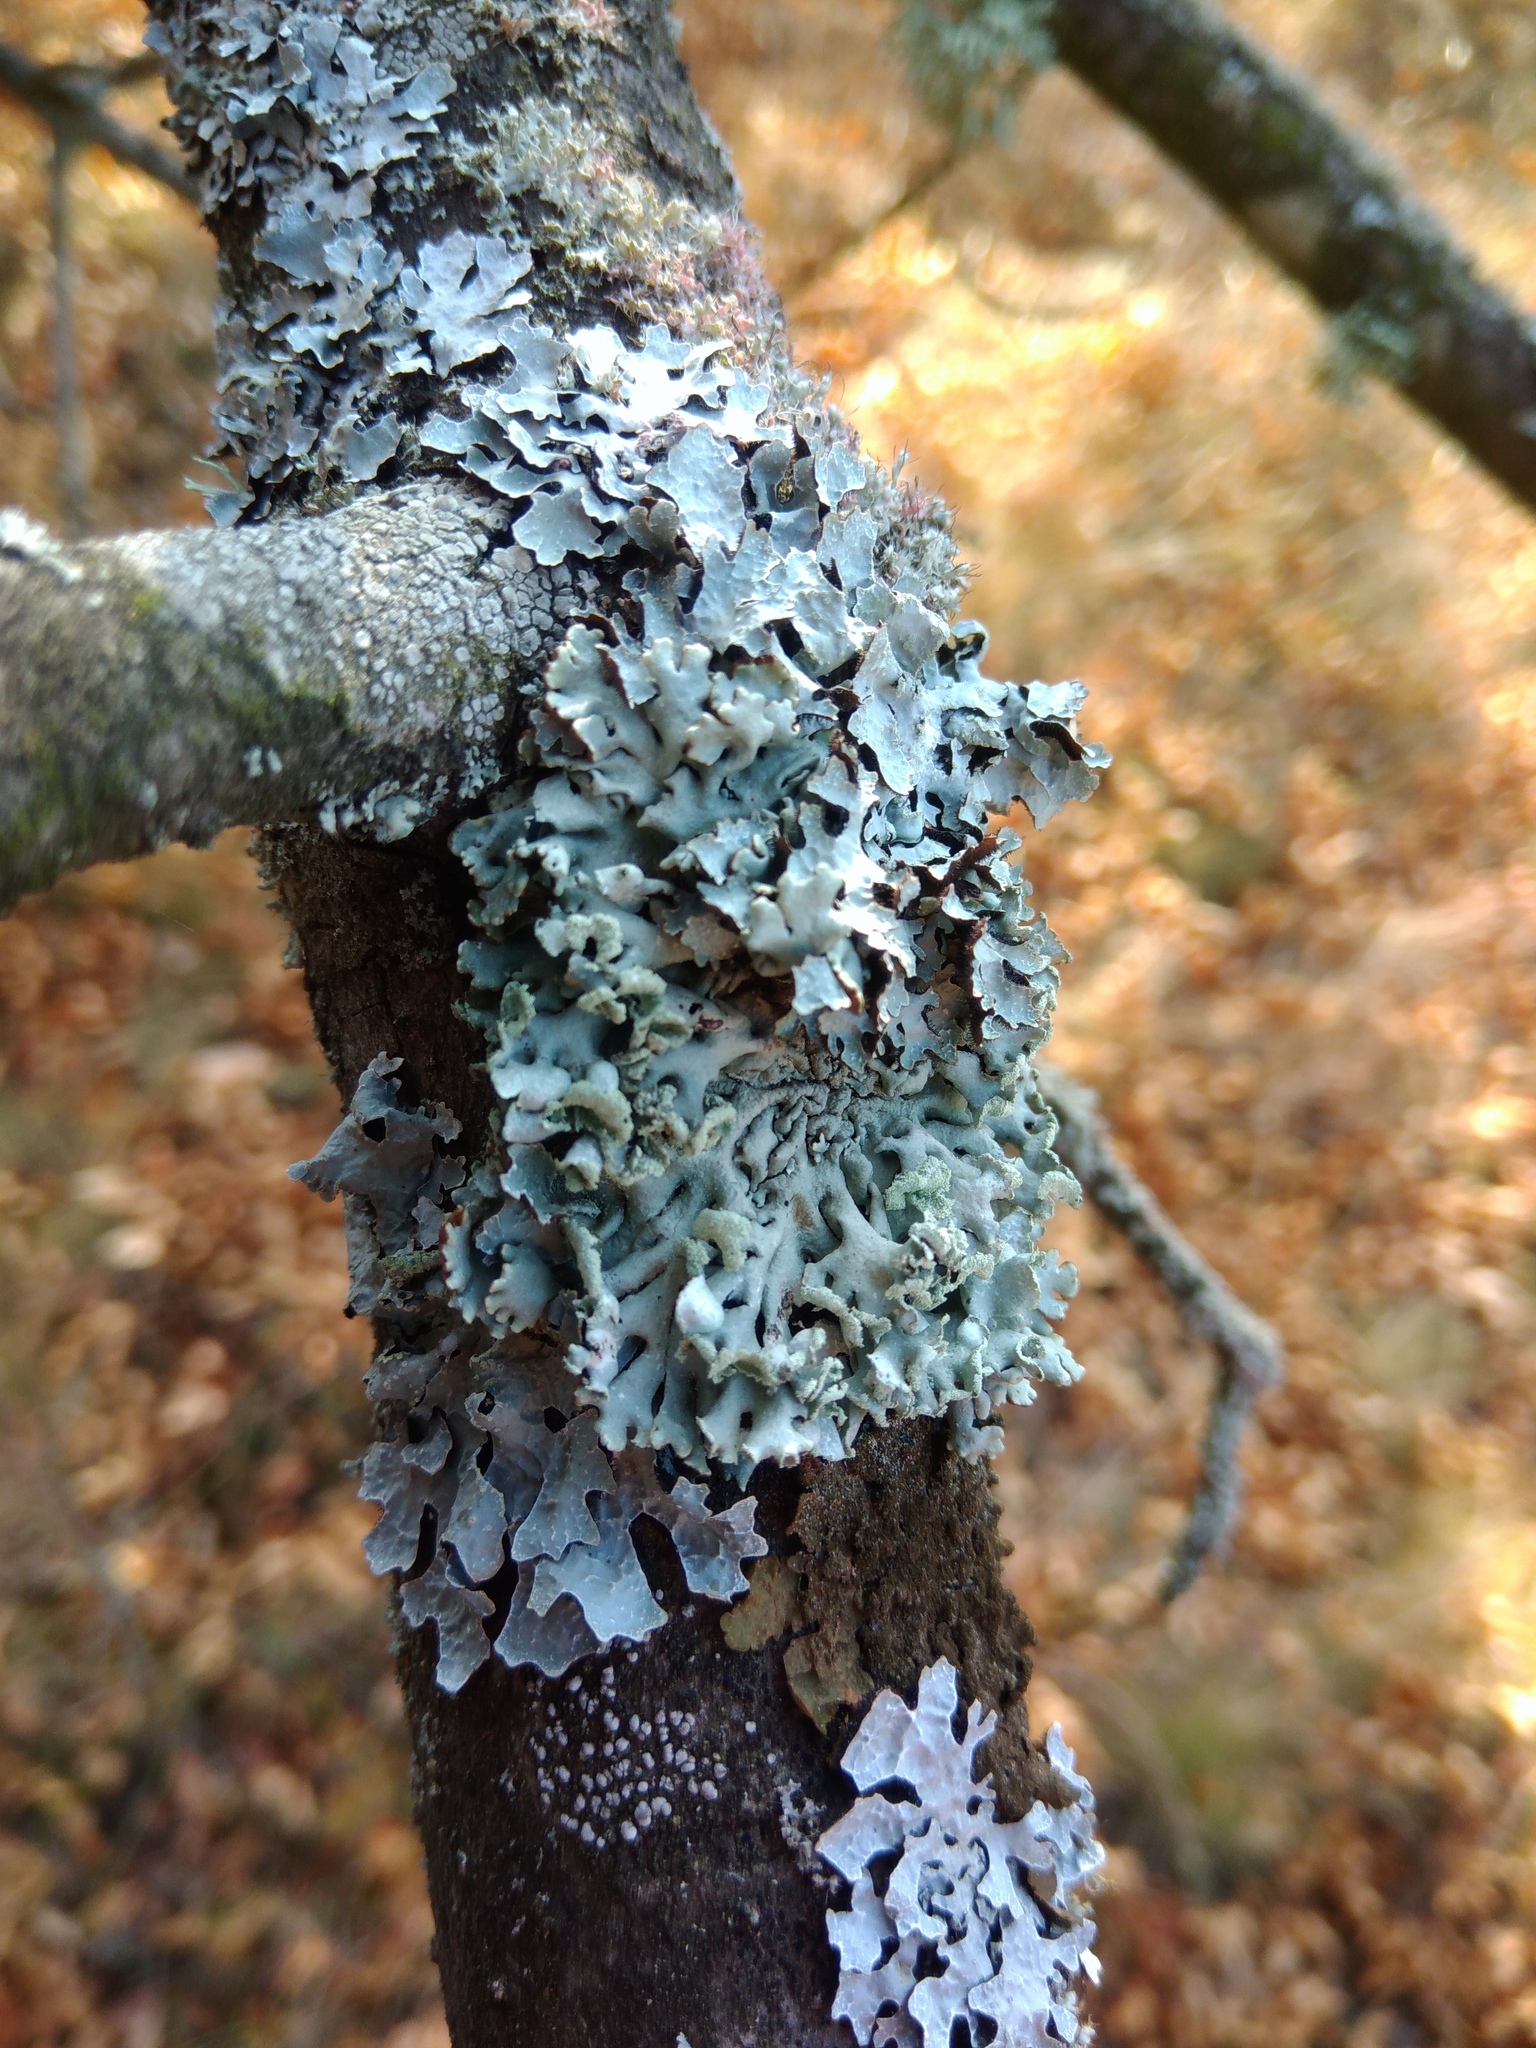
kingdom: Fungi
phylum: Ascomycota
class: Lecanoromycetes
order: Lecanorales
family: Parmeliaceae
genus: Hypogymnia
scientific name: Hypogymnia physodes
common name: Dark crottle
